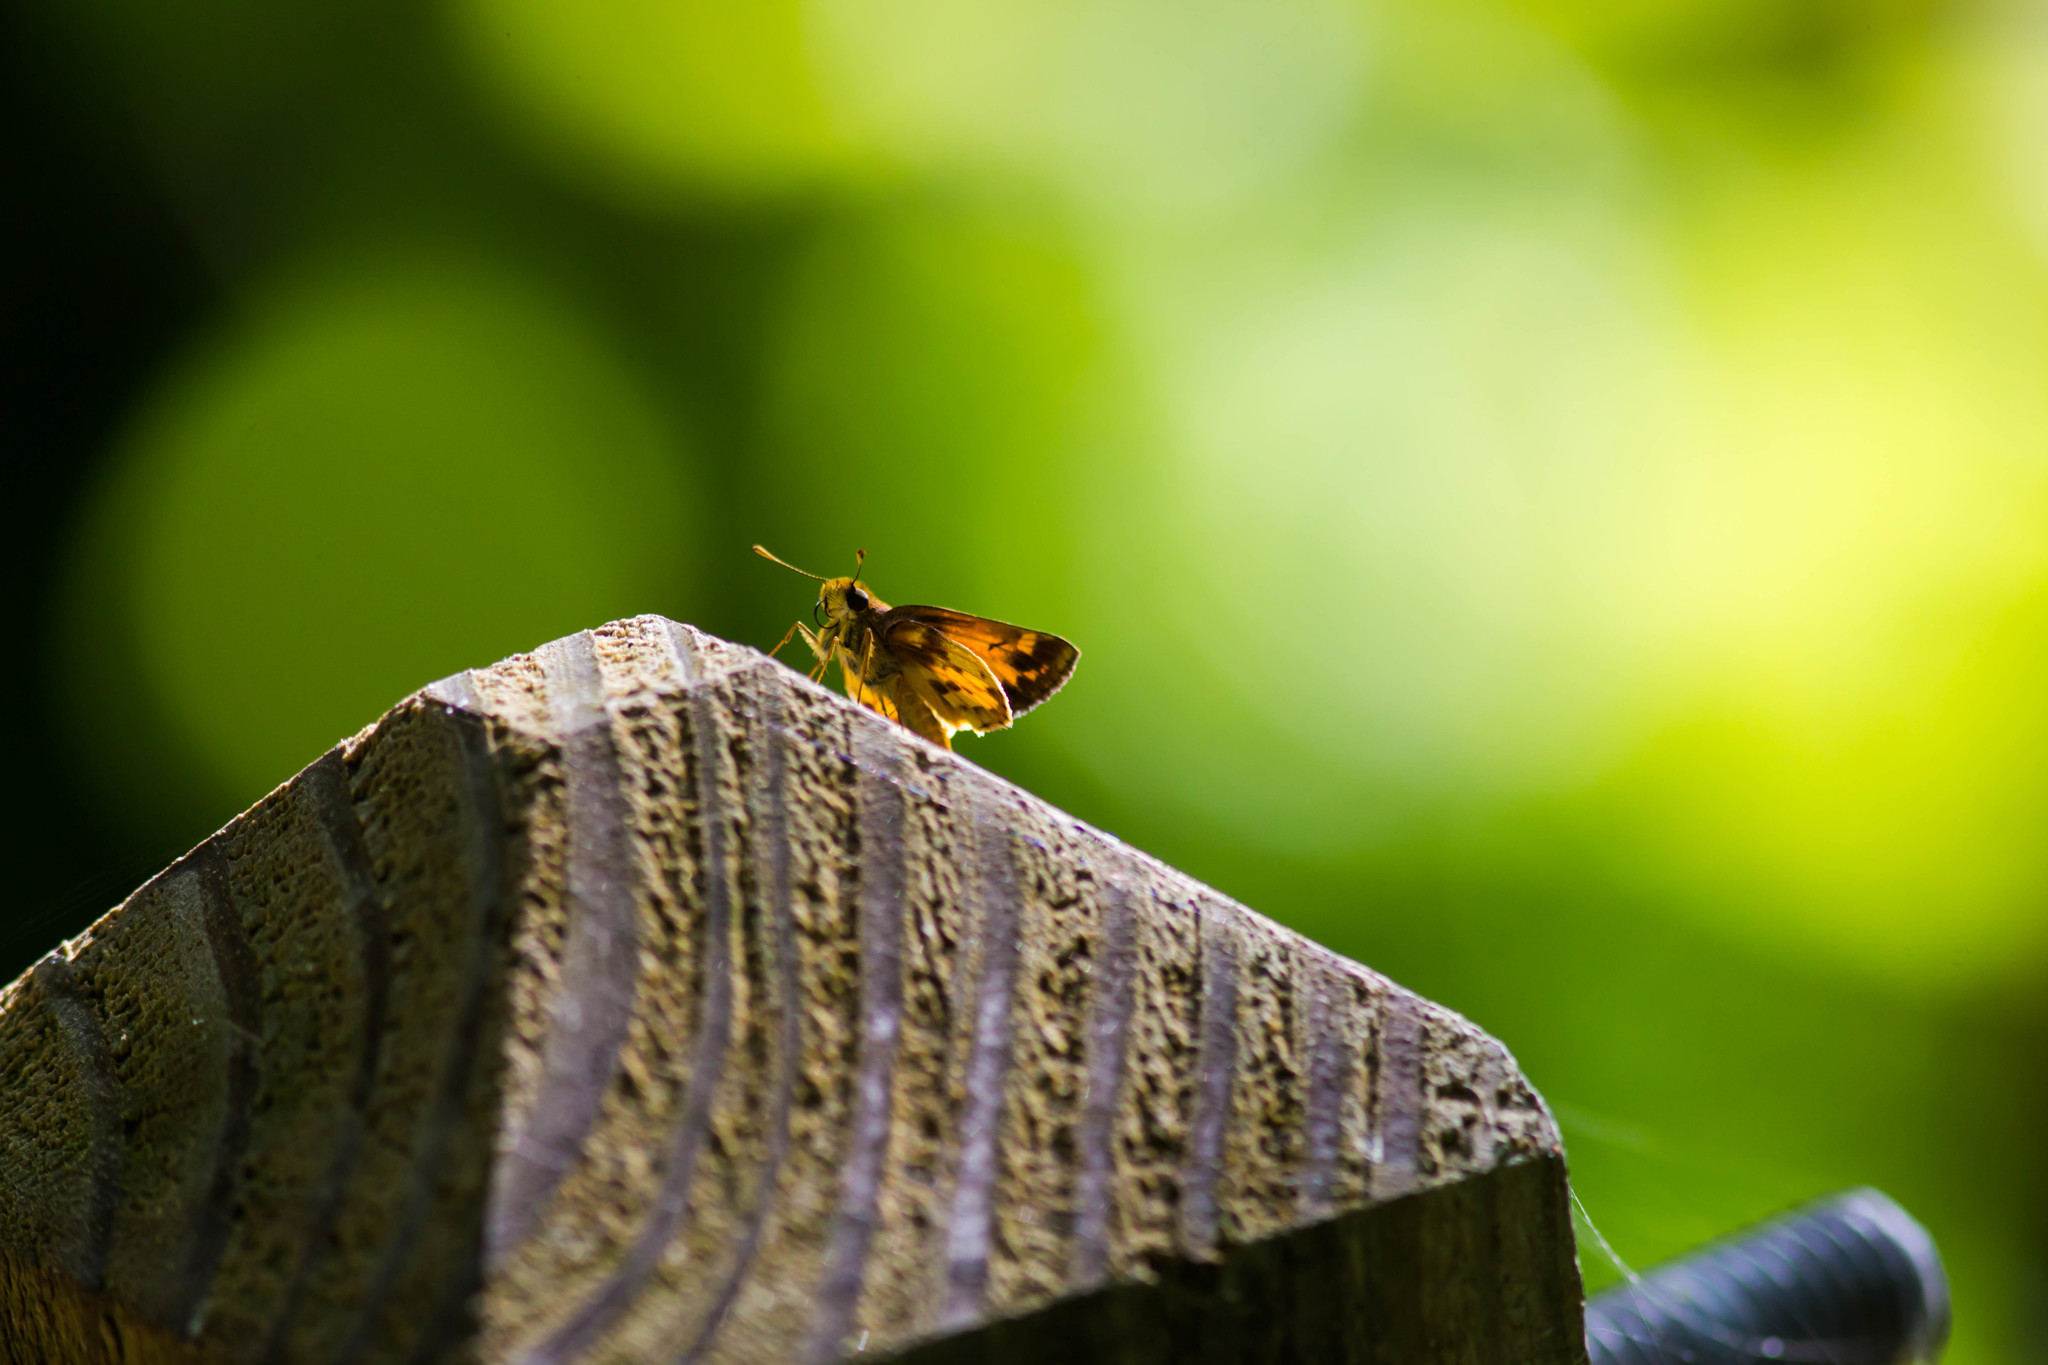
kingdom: Animalia
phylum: Arthropoda
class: Insecta
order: Lepidoptera
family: Hesperiidae
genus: Lon
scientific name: Lon zabulon
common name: Zabulon skipper
